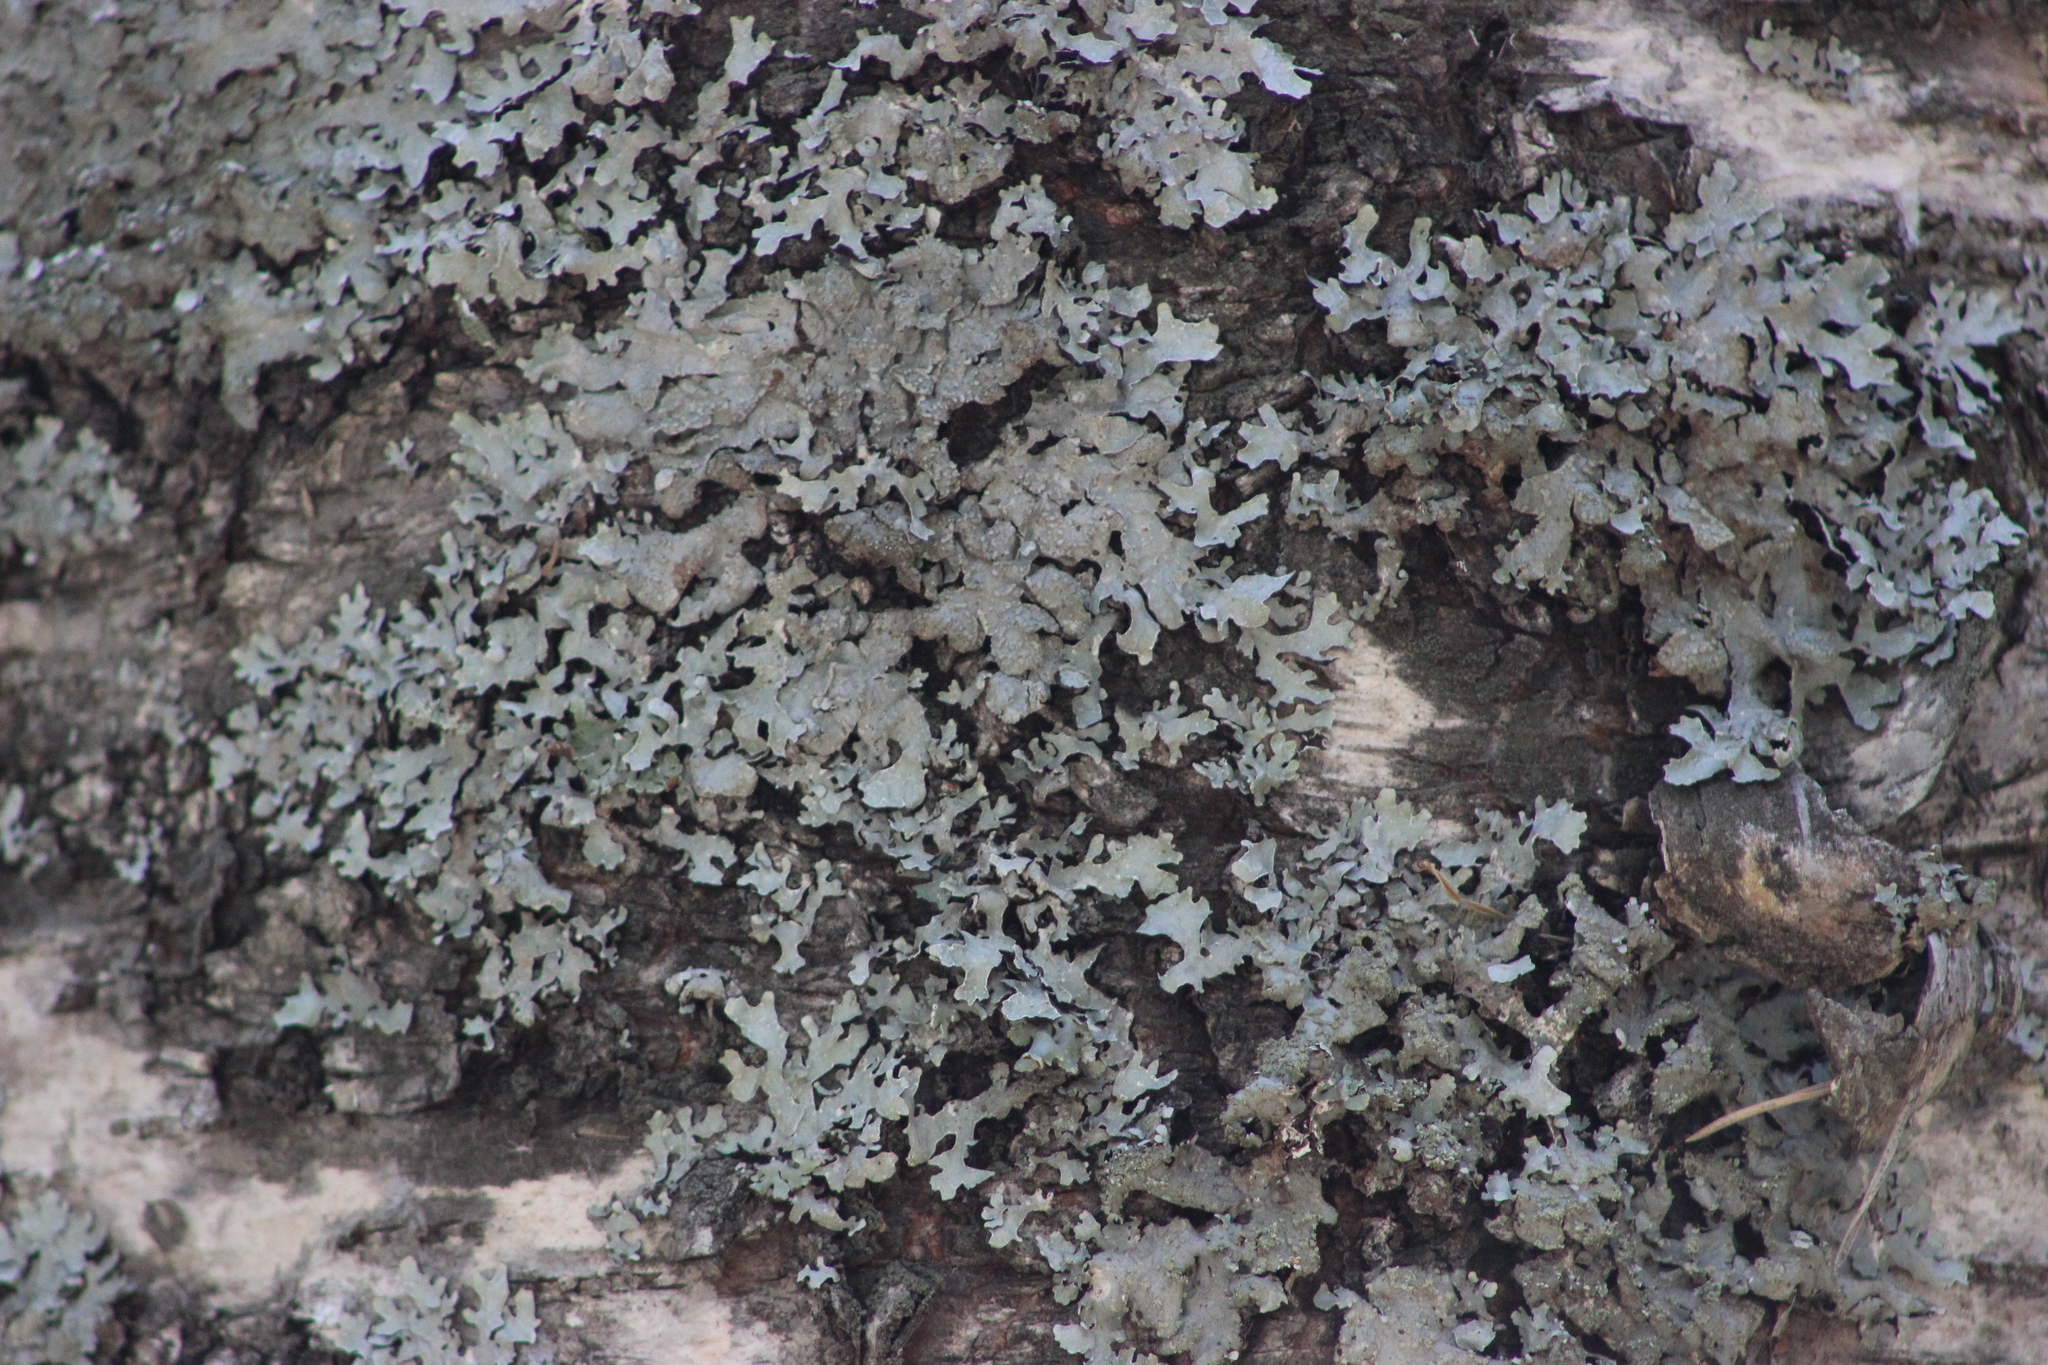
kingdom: Fungi
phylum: Ascomycota
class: Lecanoromycetes
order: Lecanorales
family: Parmeliaceae
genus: Parmelia
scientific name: Parmelia sulcata
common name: Netted shield lichen
